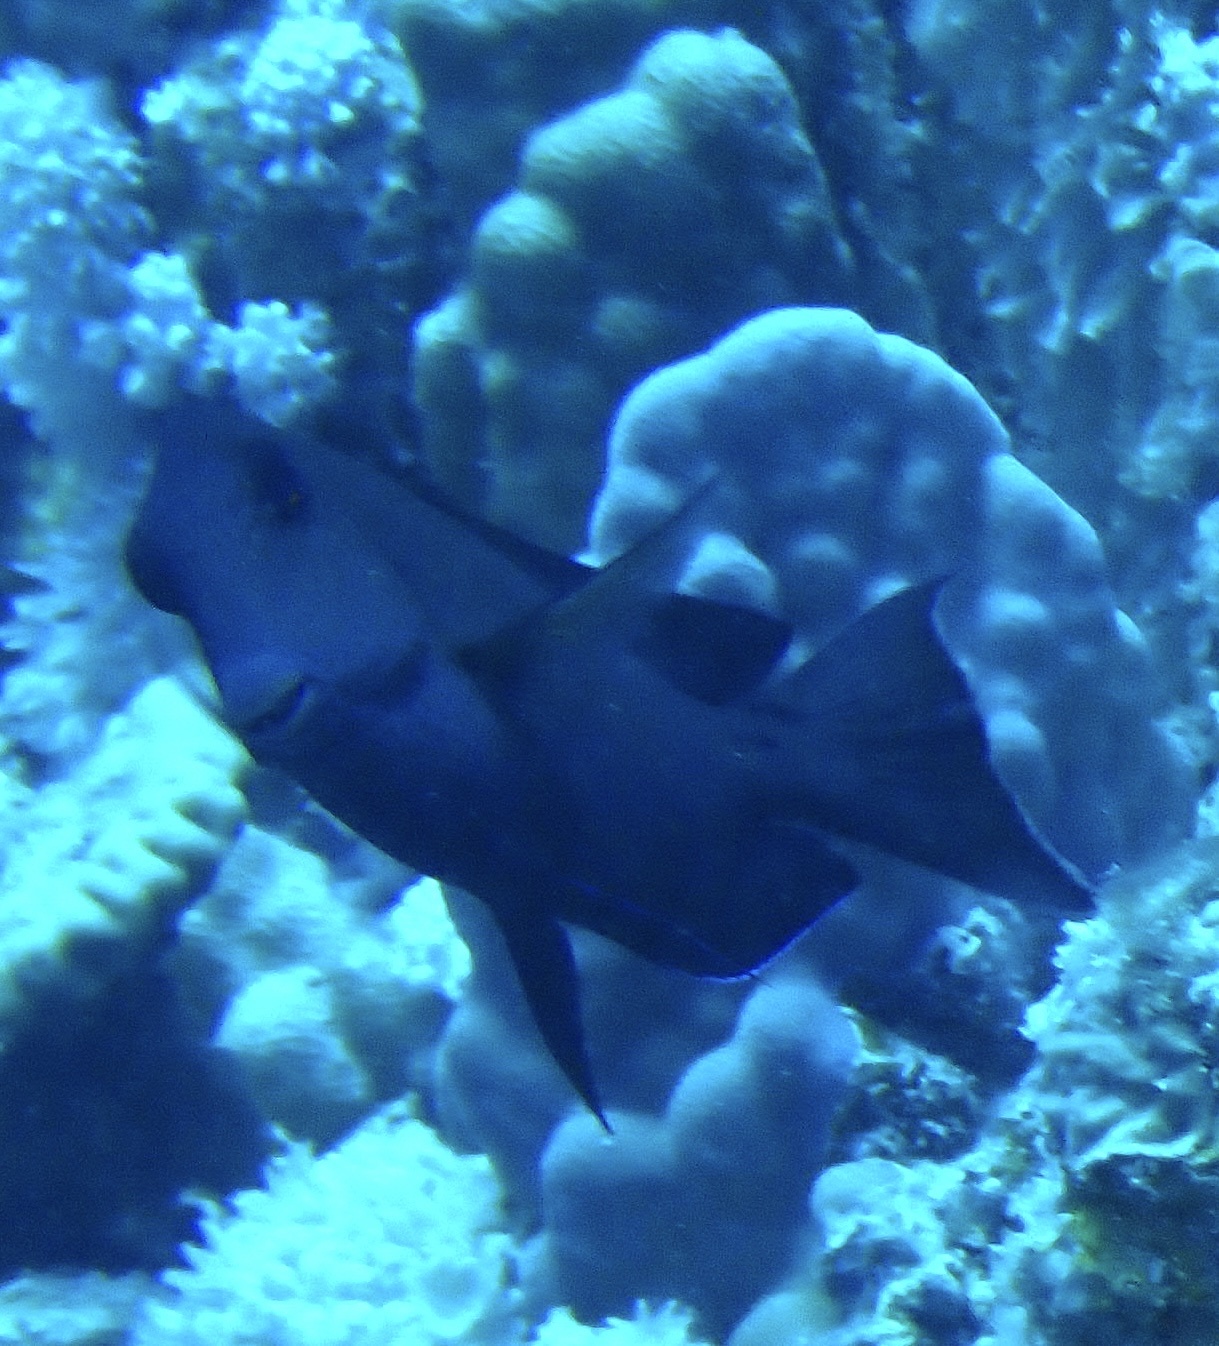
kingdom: Animalia
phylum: Chordata
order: Perciformes
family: Acanthuridae
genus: Acanthurus
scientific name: Acanthurus nigrofuscus
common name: Blackspot surgeonfish
